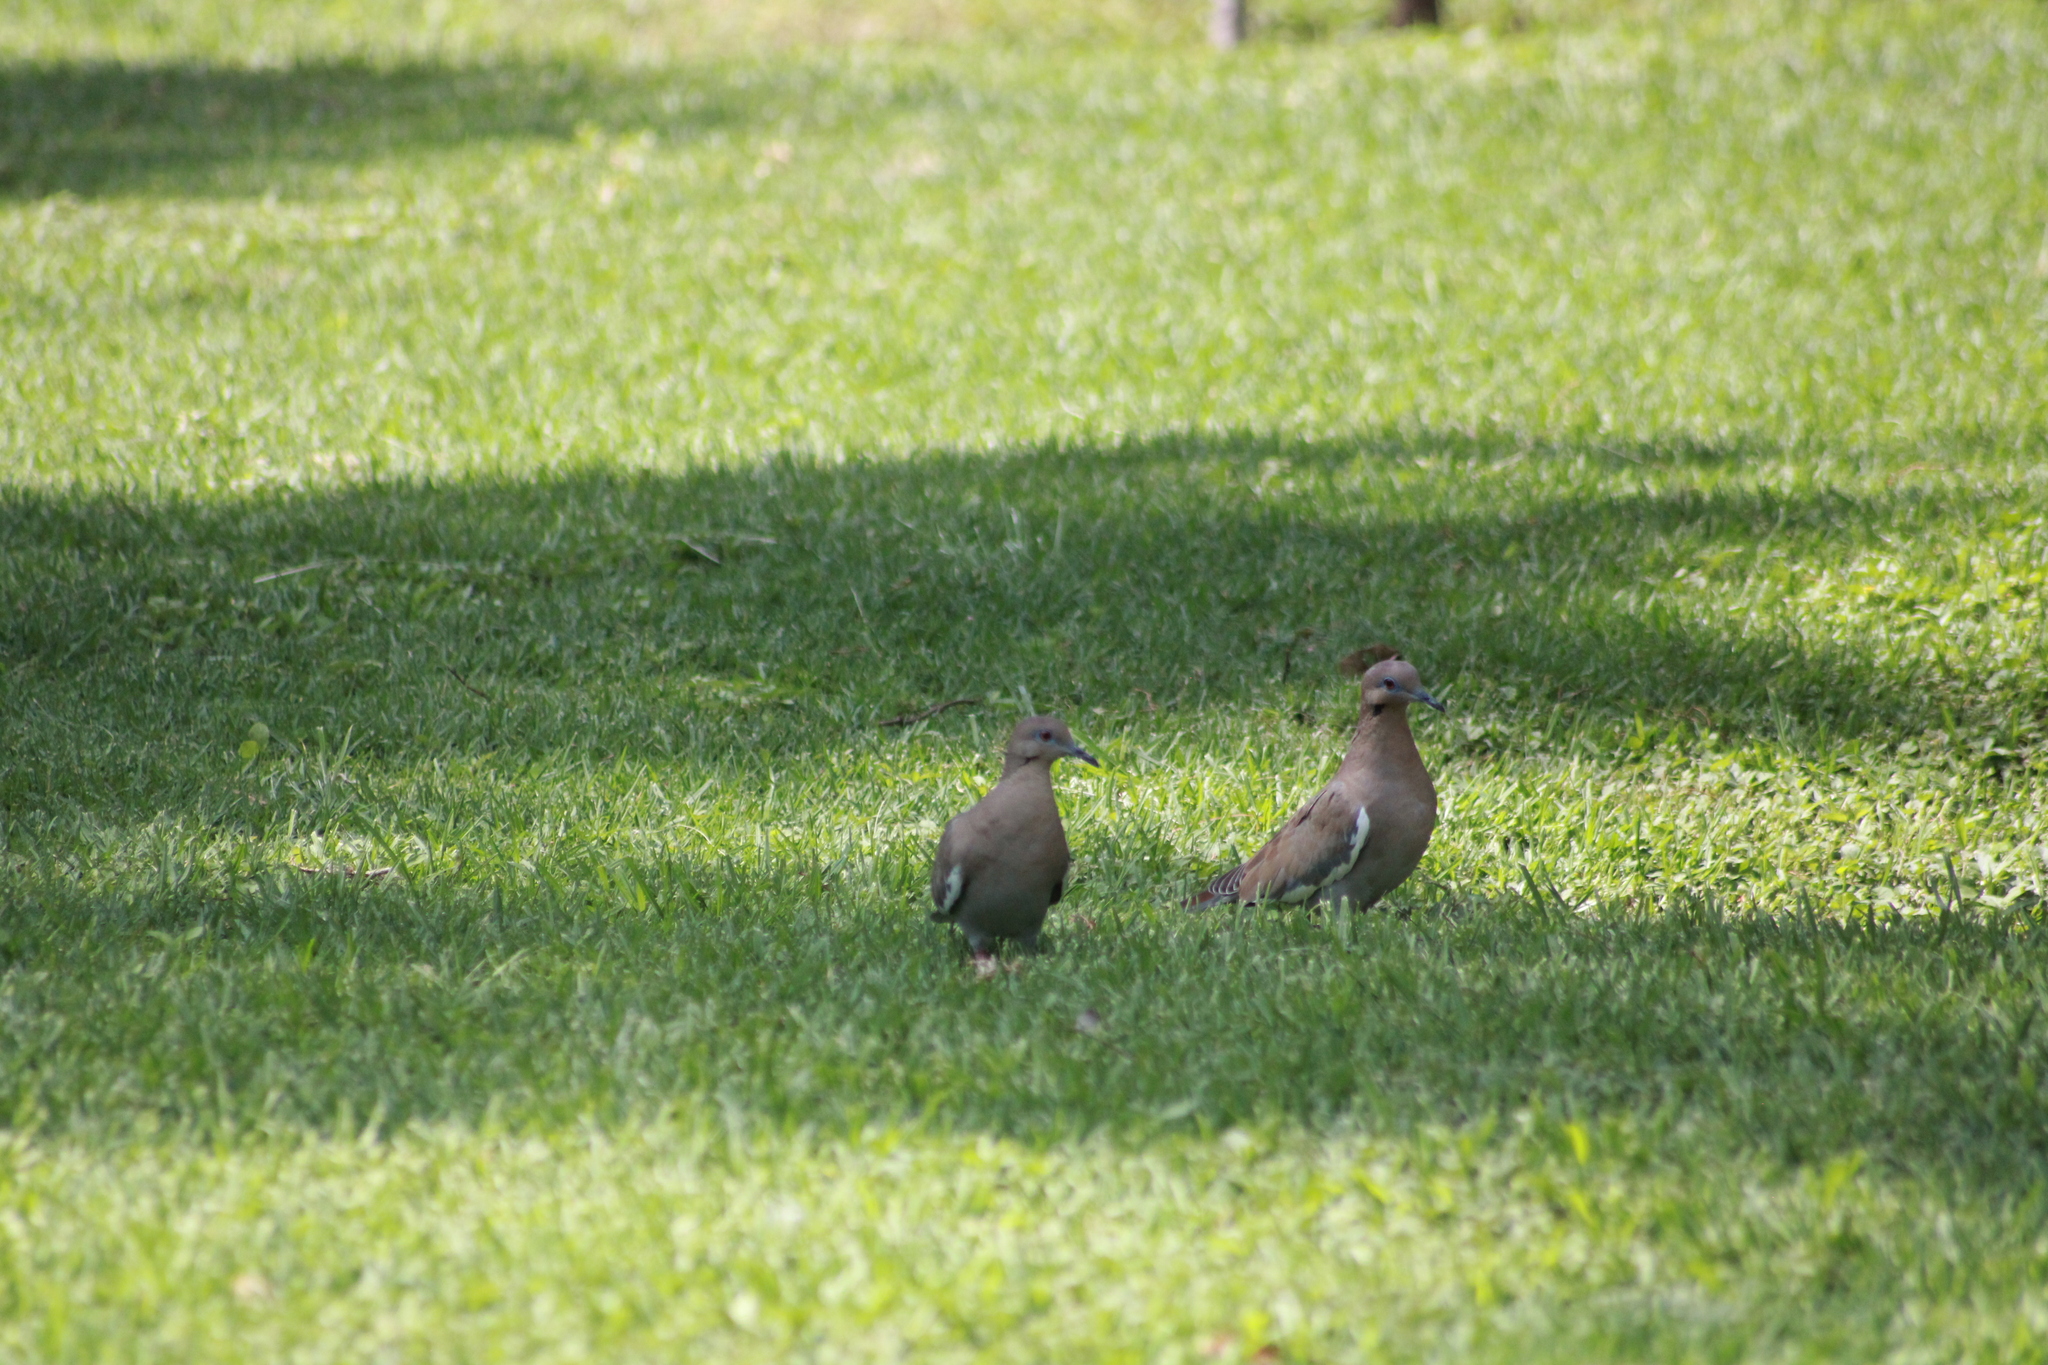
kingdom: Animalia
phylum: Chordata
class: Aves
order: Columbiformes
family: Columbidae
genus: Zenaida
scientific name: Zenaida asiatica
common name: White-winged dove
